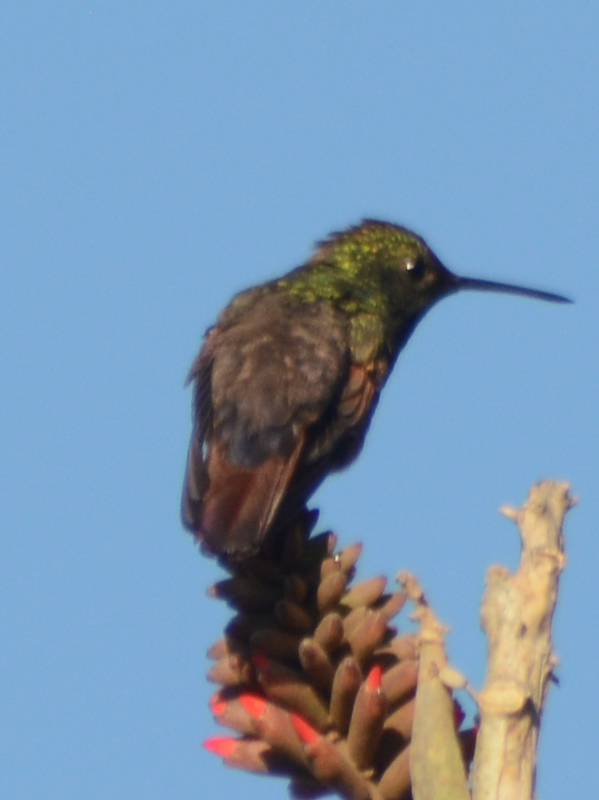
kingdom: Animalia
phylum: Chordata
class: Aves
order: Apodiformes
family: Trochilidae
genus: Saucerottia
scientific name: Saucerottia beryllina
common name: Berylline hummingbird
